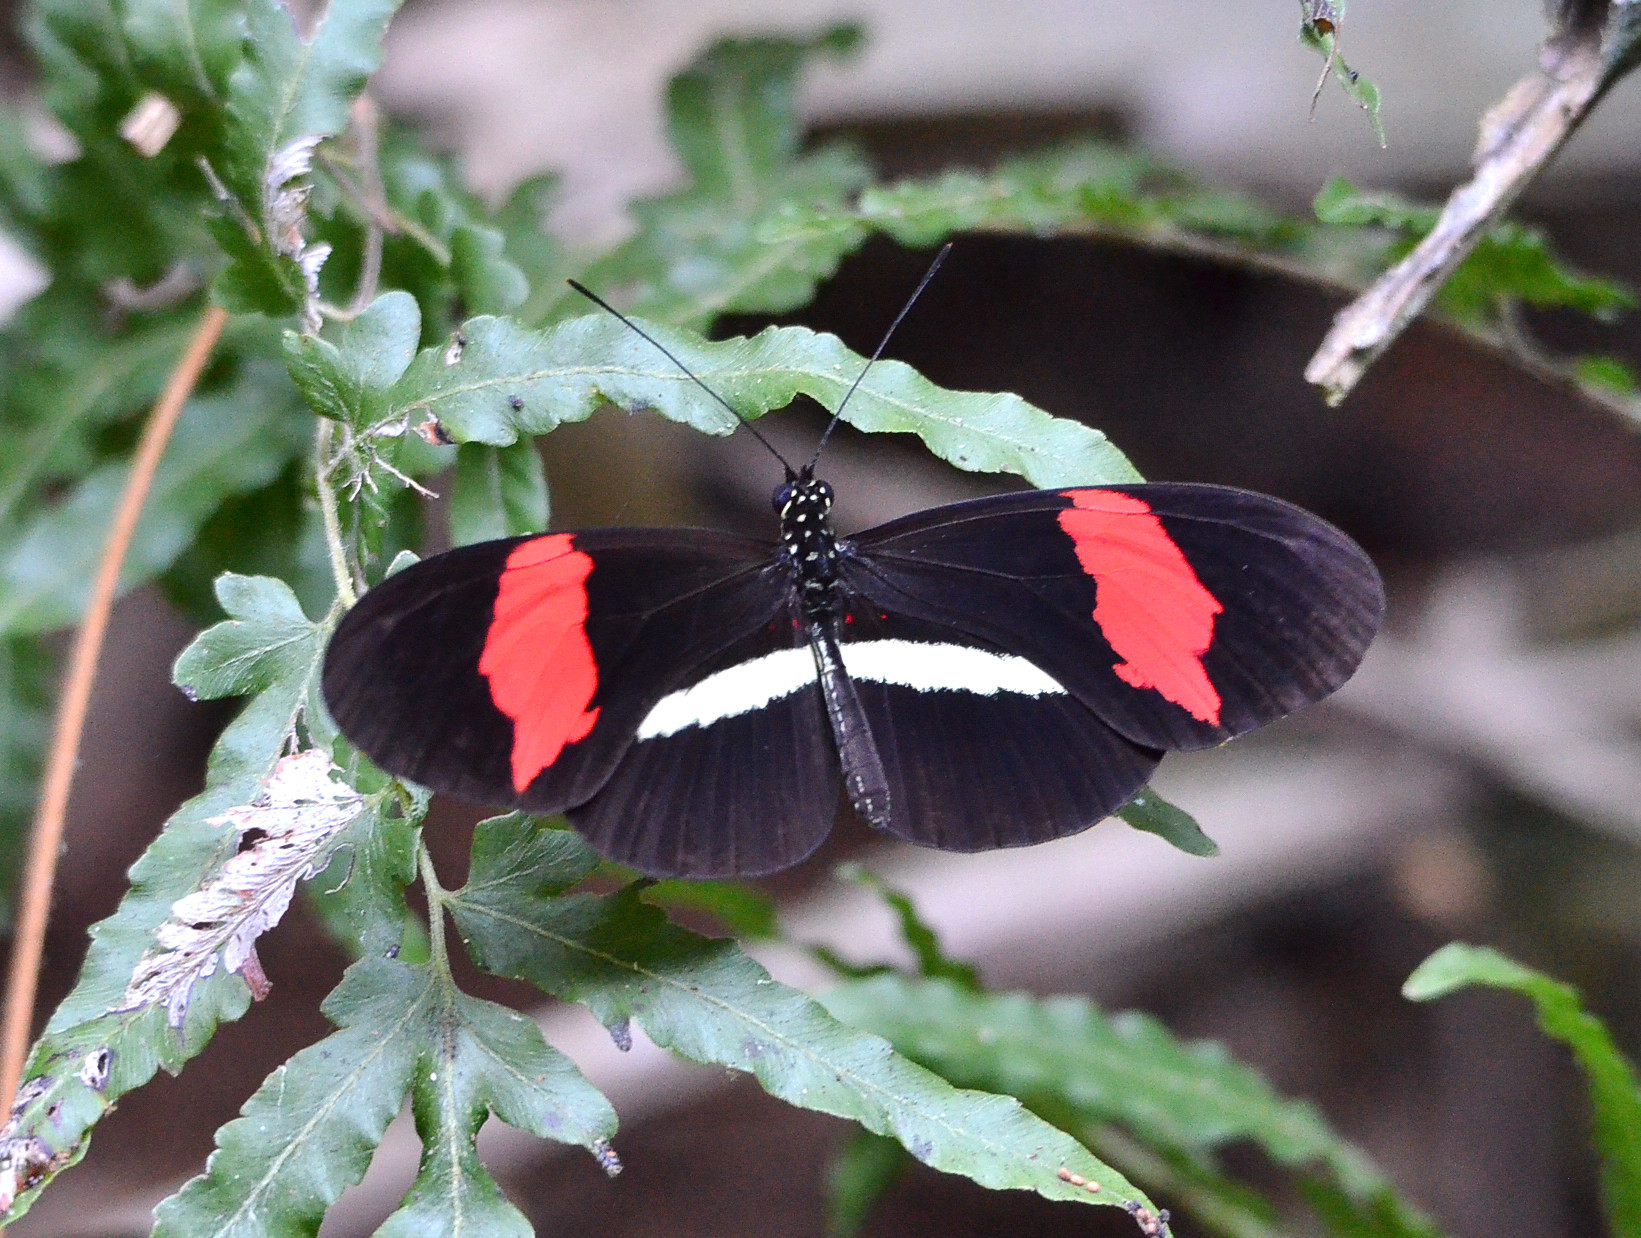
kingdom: Animalia
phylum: Arthropoda
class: Insecta
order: Lepidoptera
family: Nymphalidae
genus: Heliconius
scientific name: Heliconius erato
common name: Common patch longwing
